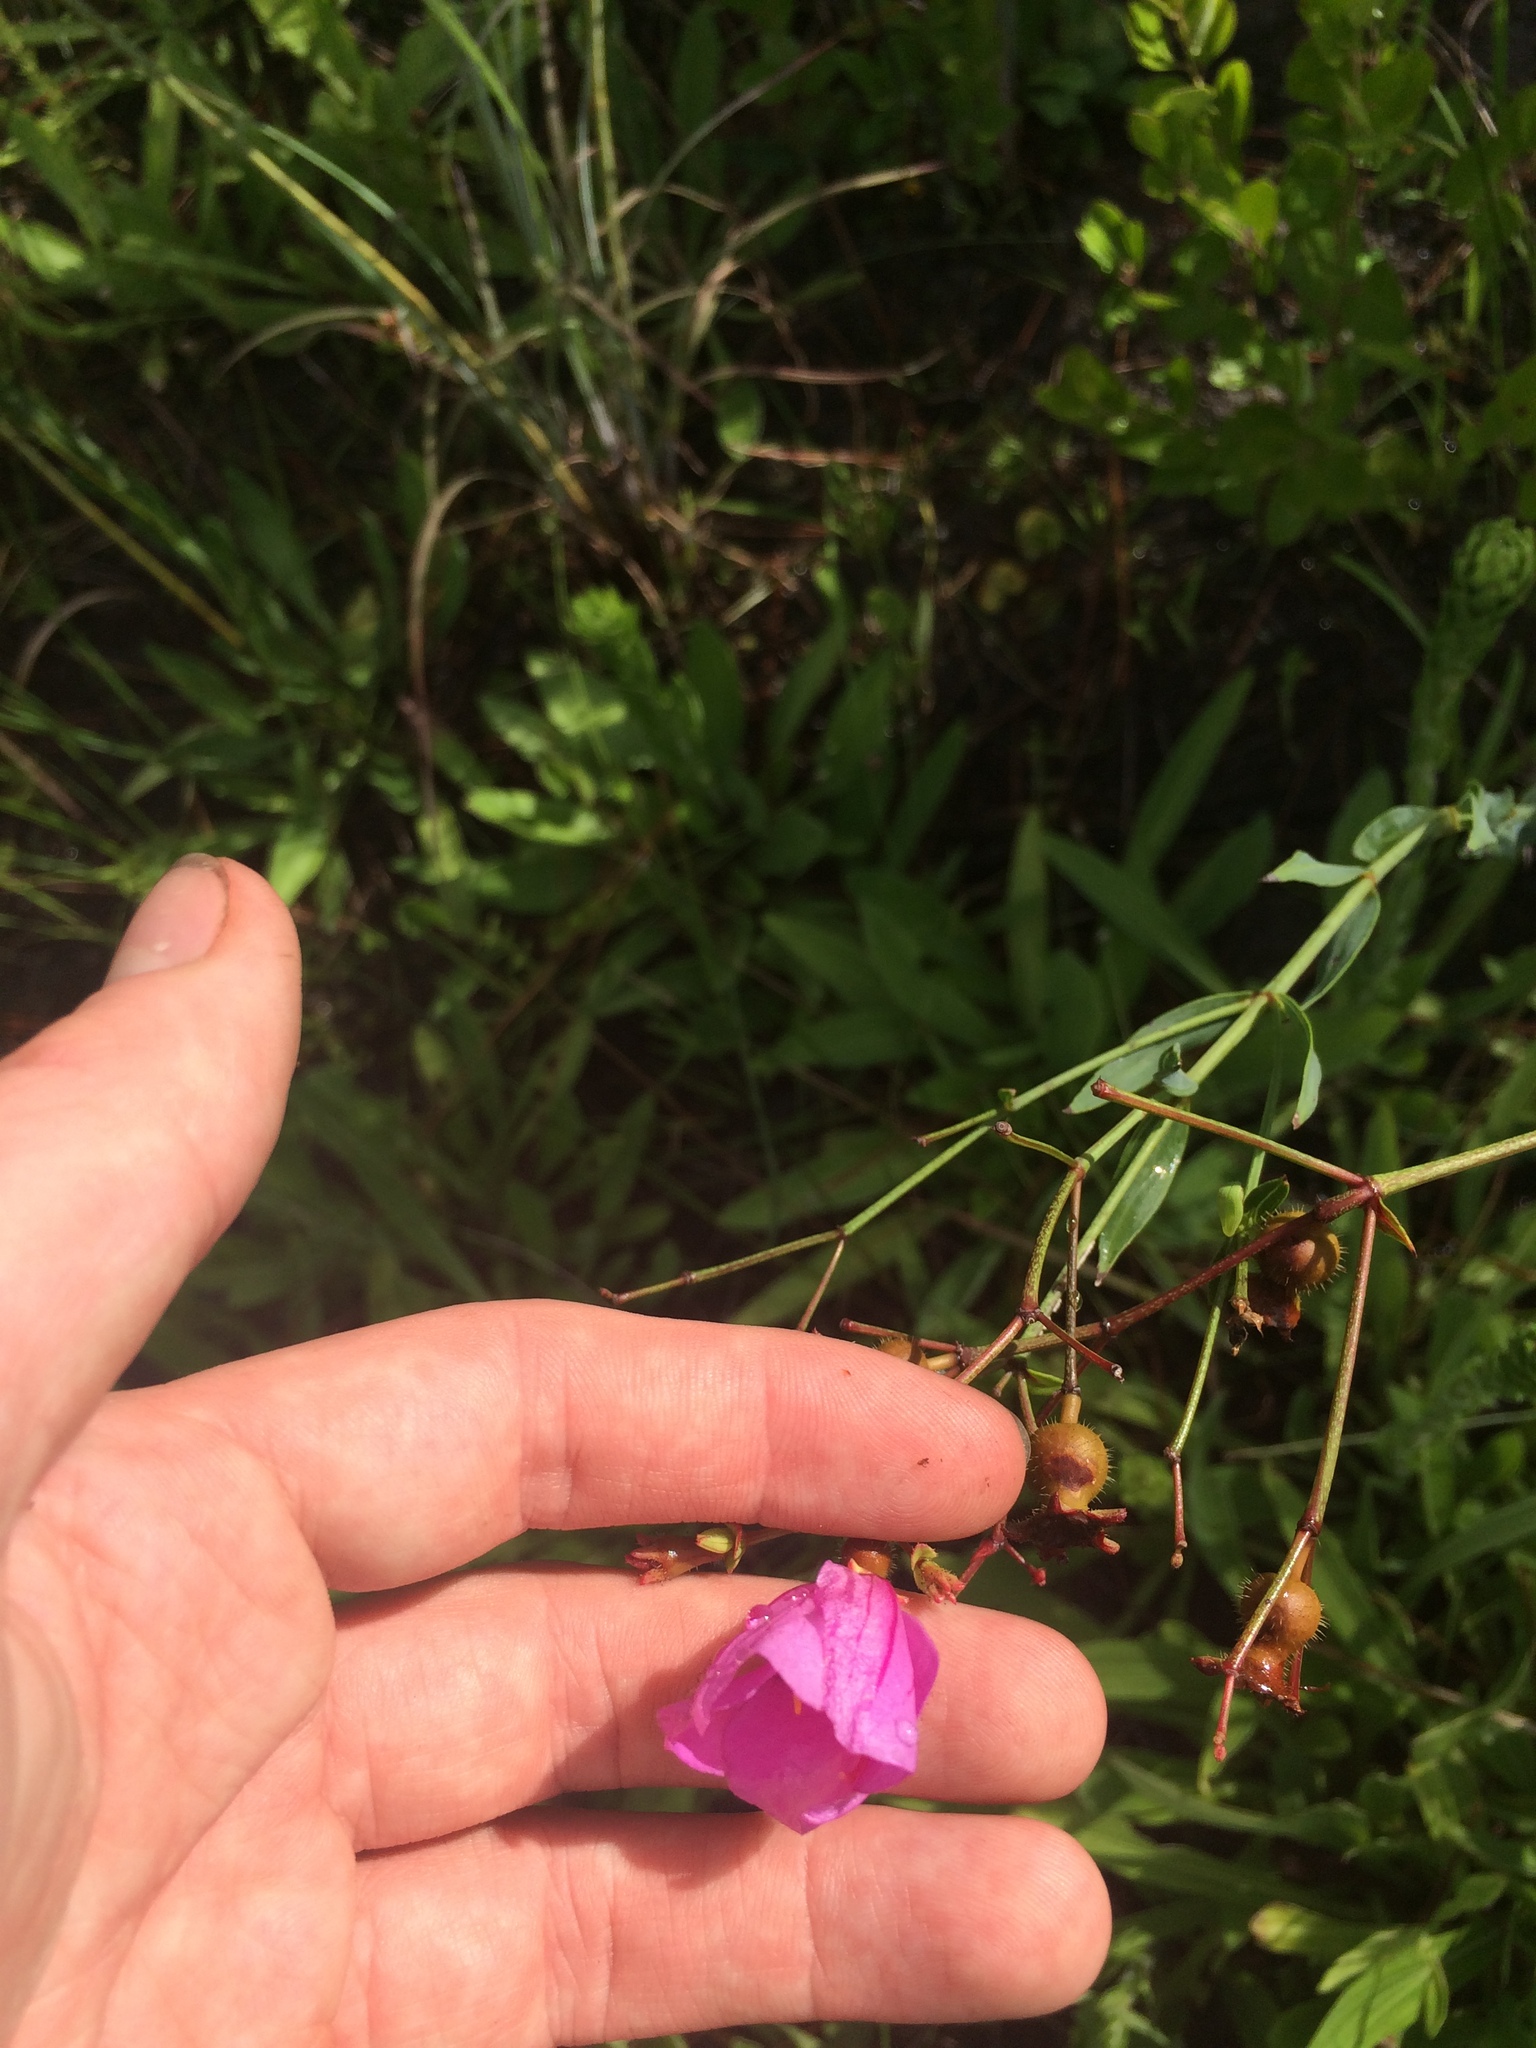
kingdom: Plantae
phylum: Tracheophyta
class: Magnoliopsida
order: Myrtales
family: Melastomataceae
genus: Rhexia
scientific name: Rhexia alifanus
